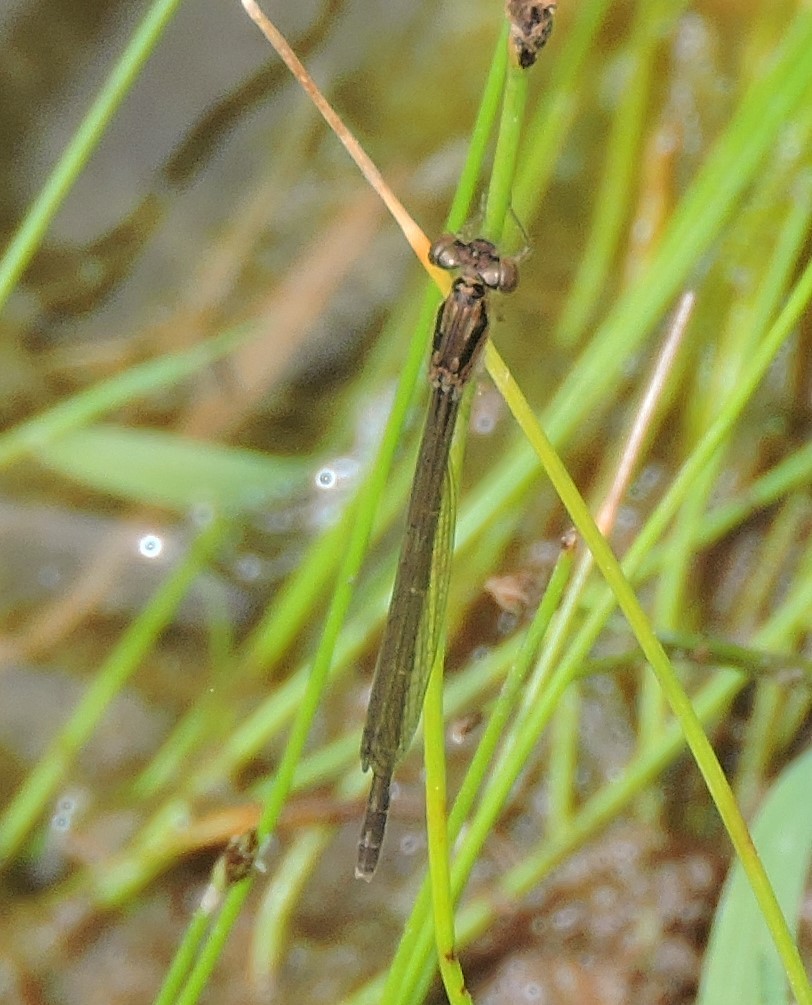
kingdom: Animalia
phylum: Arthropoda
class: Insecta
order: Odonata
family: Coenagrionidae
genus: Ischnura
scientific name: Ischnura posita
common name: Fragile forktail
